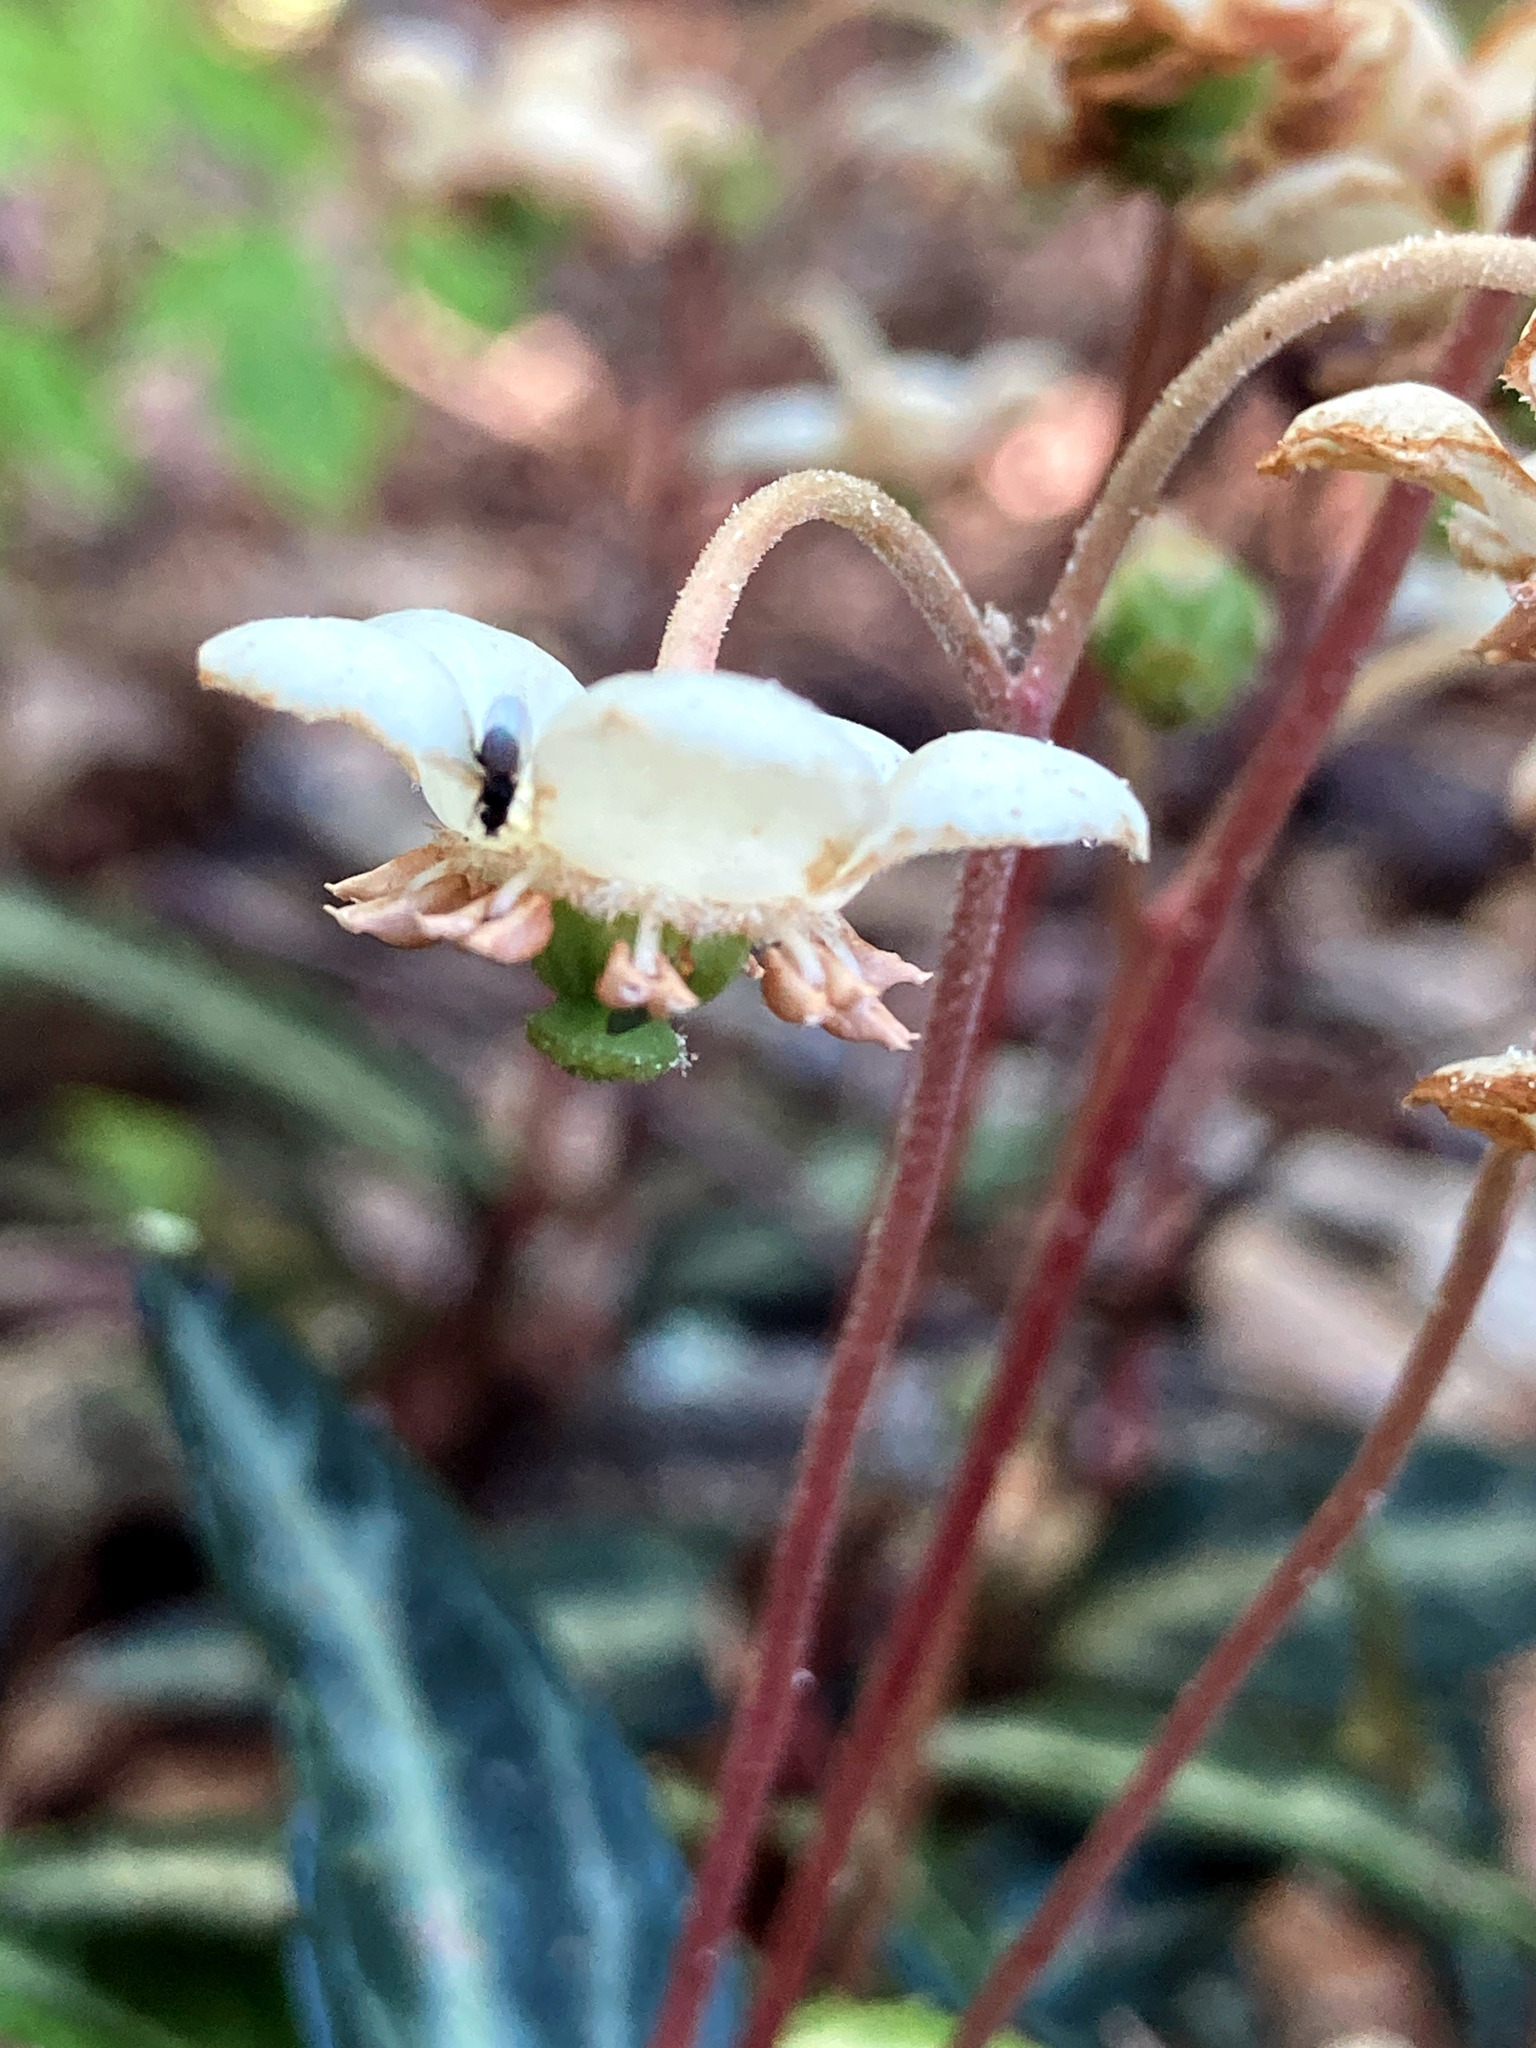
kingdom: Plantae
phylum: Tracheophyta
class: Magnoliopsida
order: Ericales
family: Ericaceae
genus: Chimaphila
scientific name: Chimaphila maculata
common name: Spotted pipsissewa
